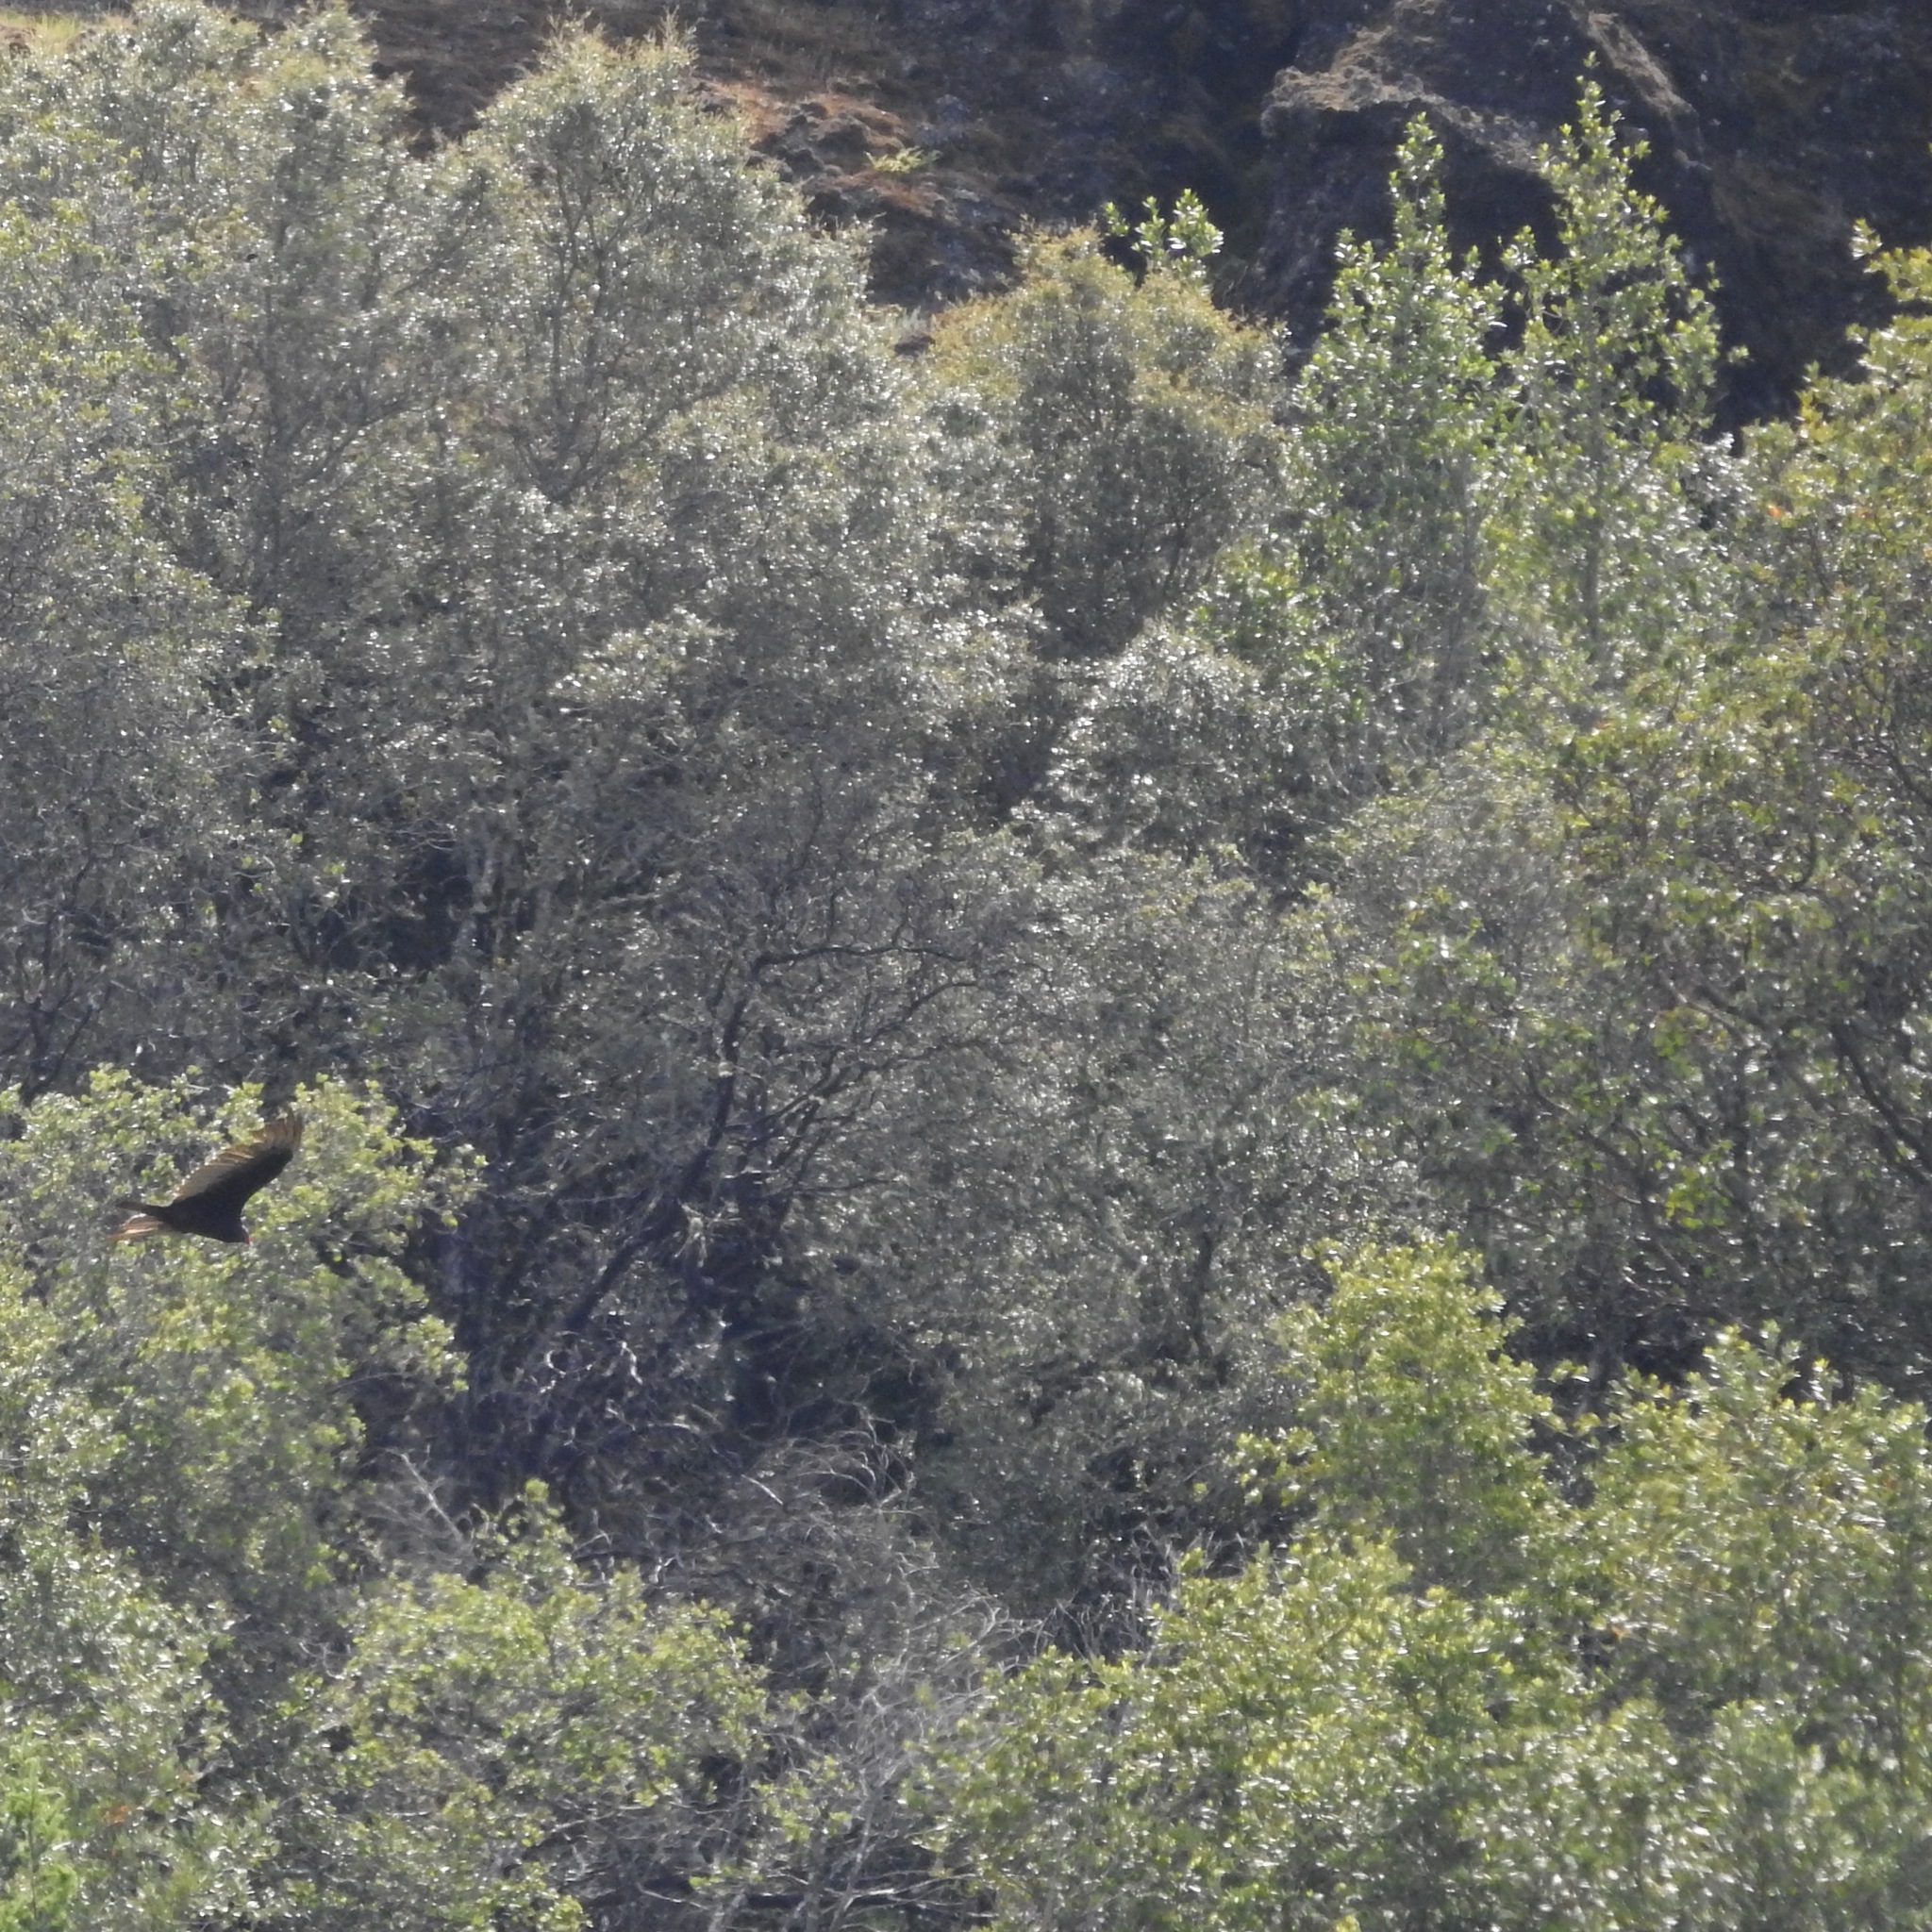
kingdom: Animalia
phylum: Chordata
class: Aves
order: Accipitriformes
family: Cathartidae
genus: Cathartes
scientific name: Cathartes aura
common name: Turkey vulture
